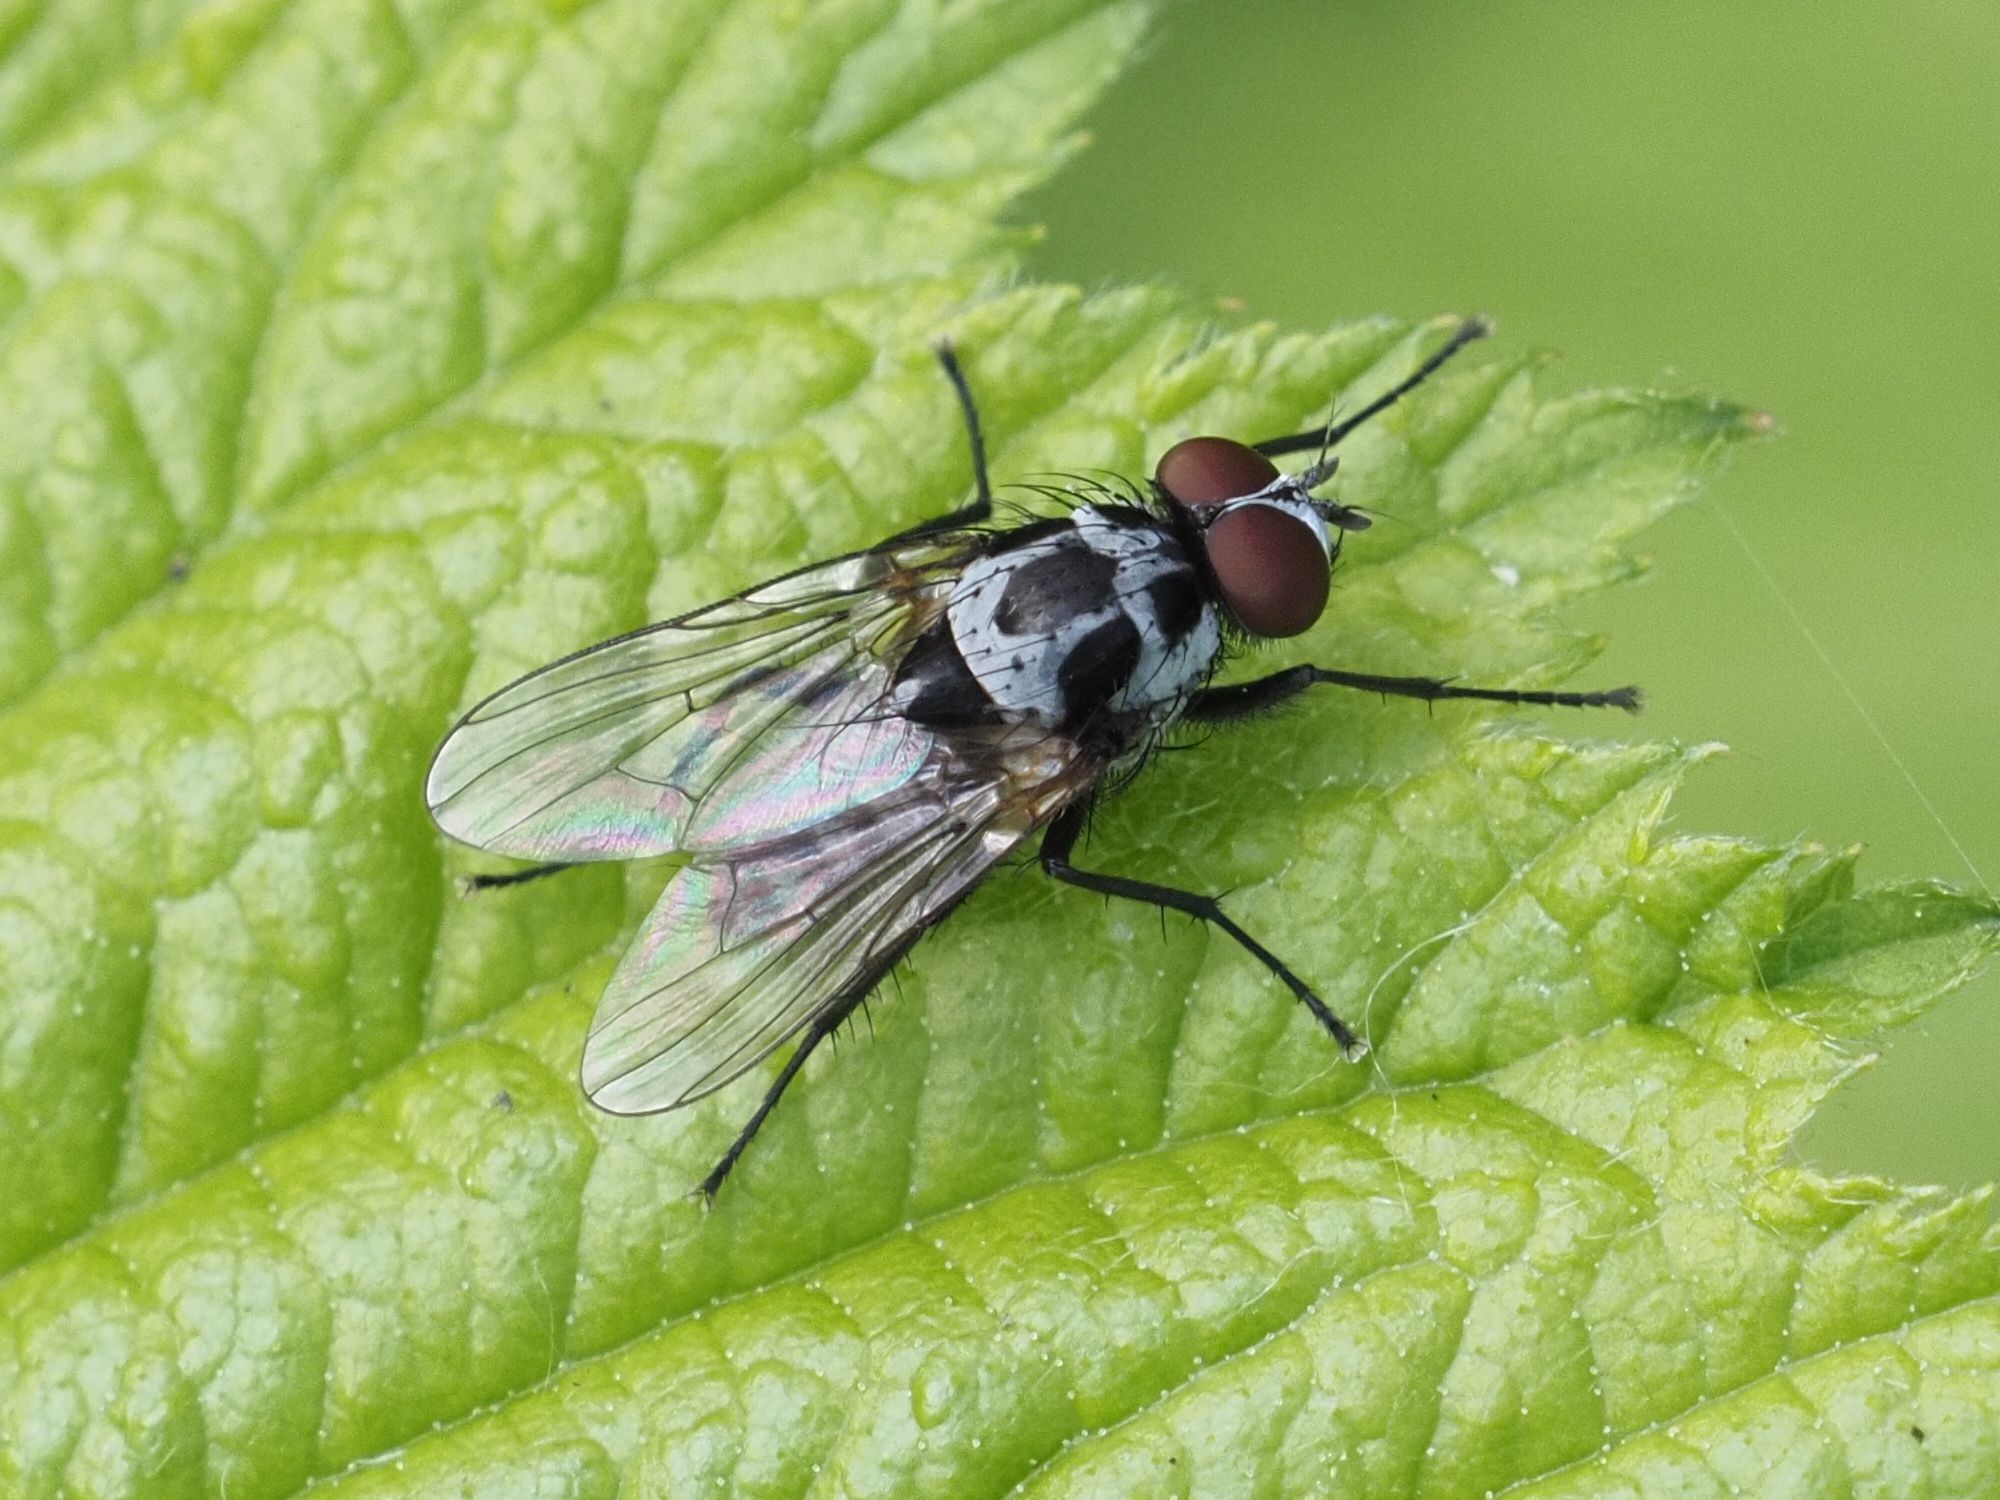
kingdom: Animalia
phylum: Arthropoda
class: Insecta
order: Diptera
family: Anthomyiidae
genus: Anthomyia
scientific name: Anthomyia procellaris
